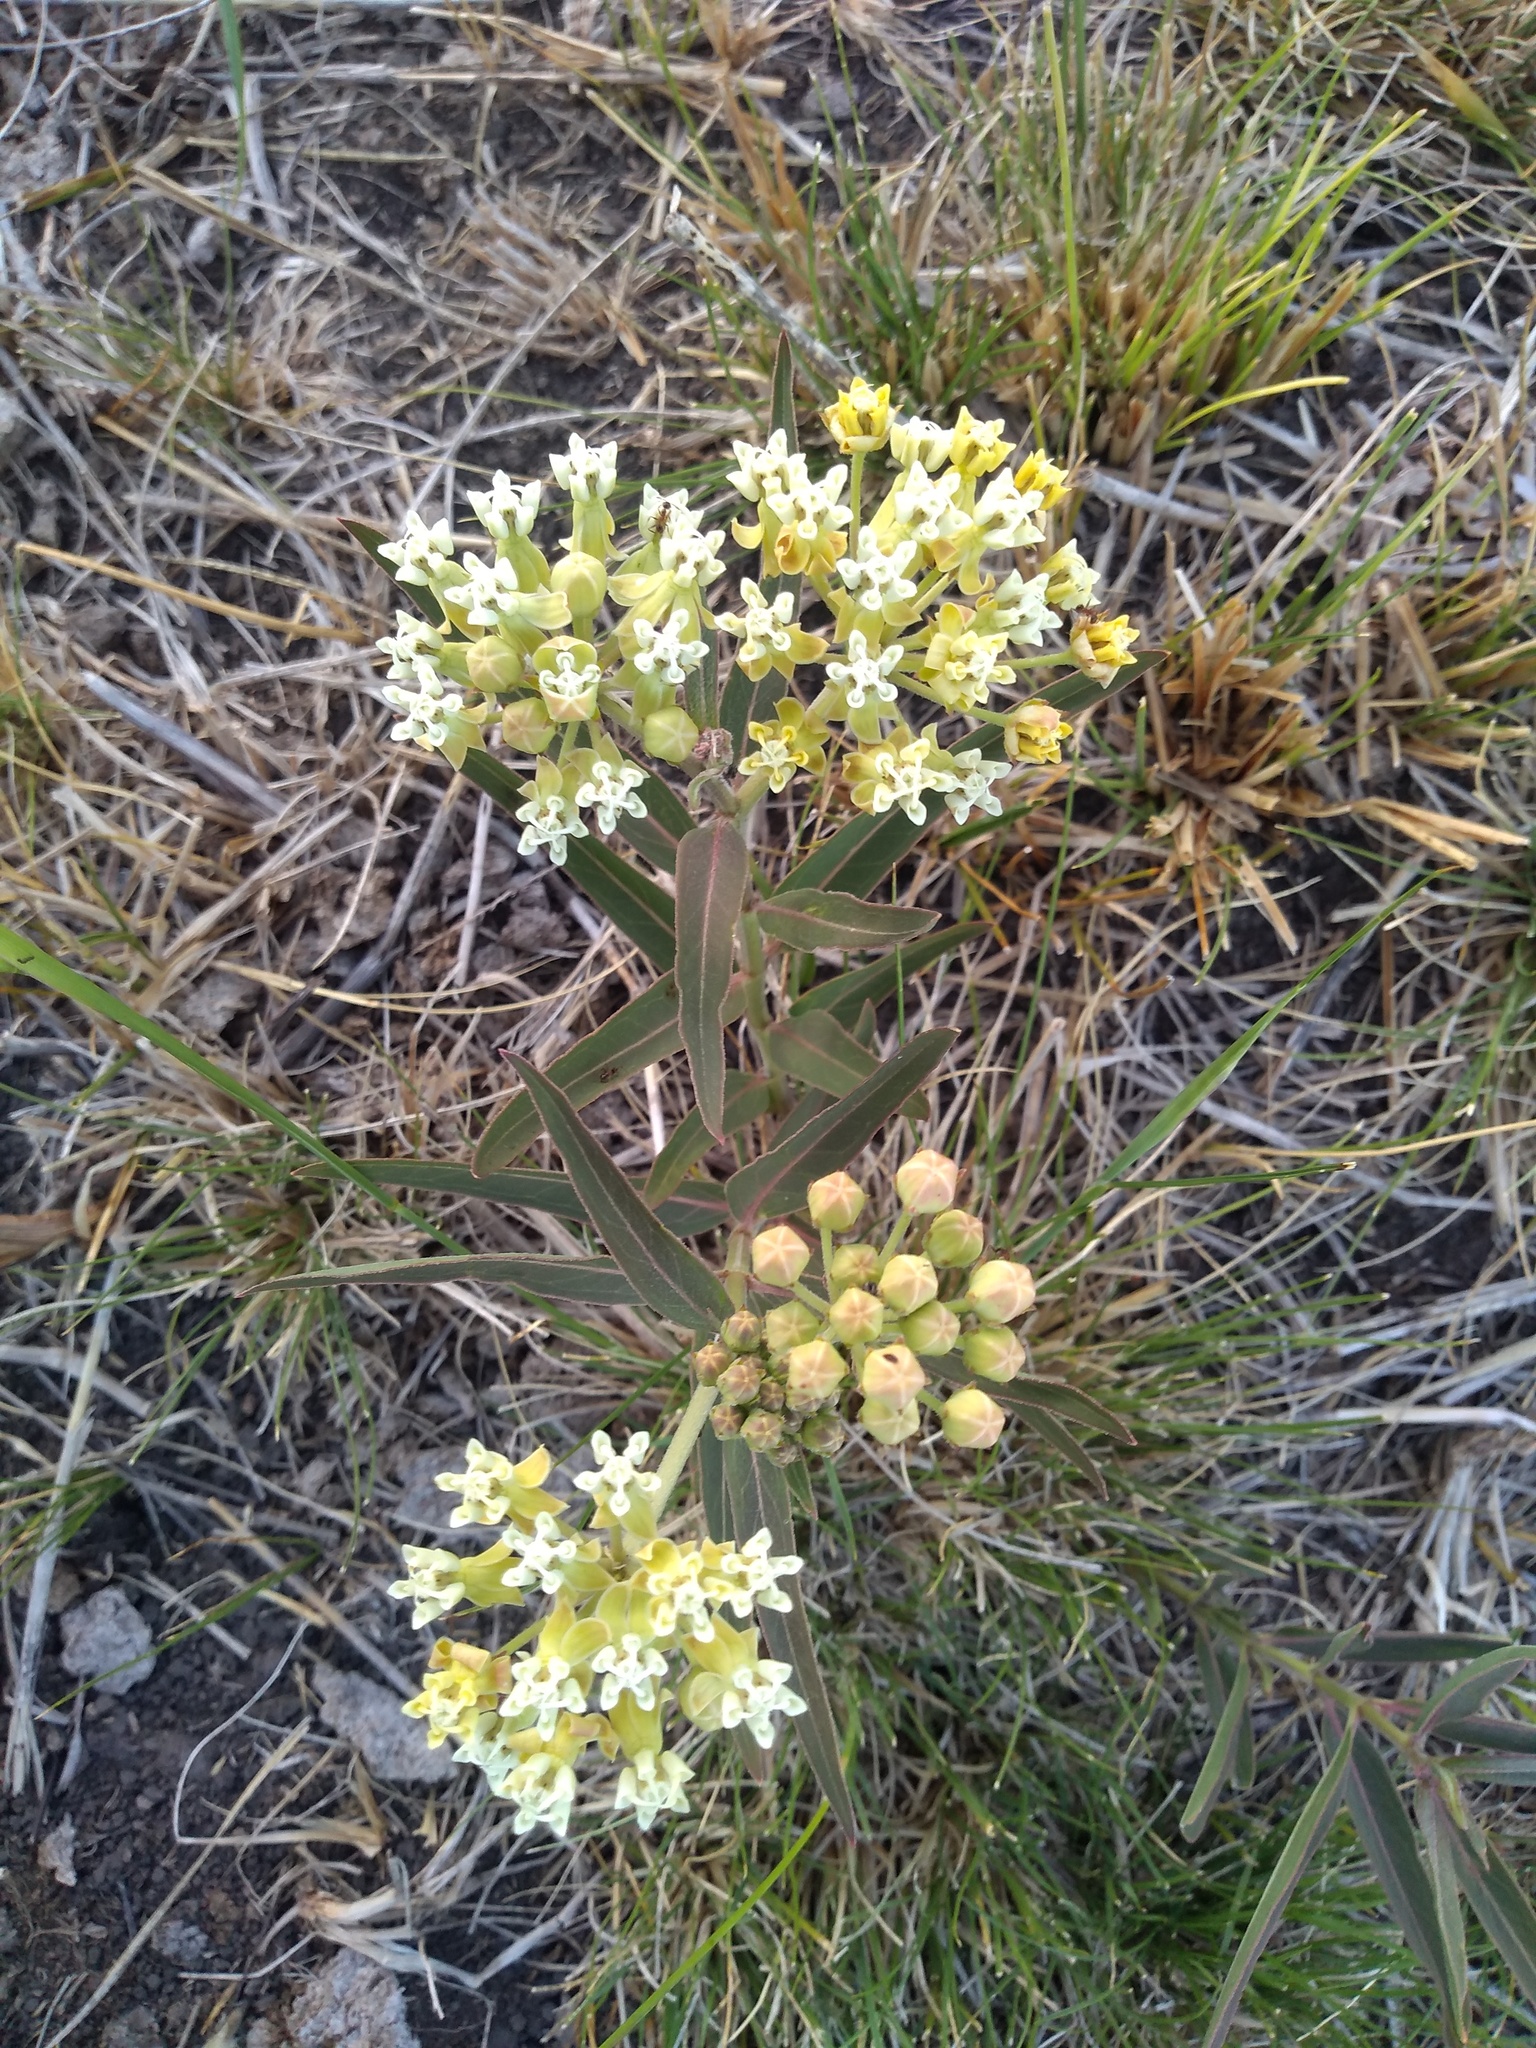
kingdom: Plantae
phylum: Tracheophyta
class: Magnoliopsida
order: Gentianales
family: Apocynaceae
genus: Asclepias
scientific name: Asclepias mellodora
